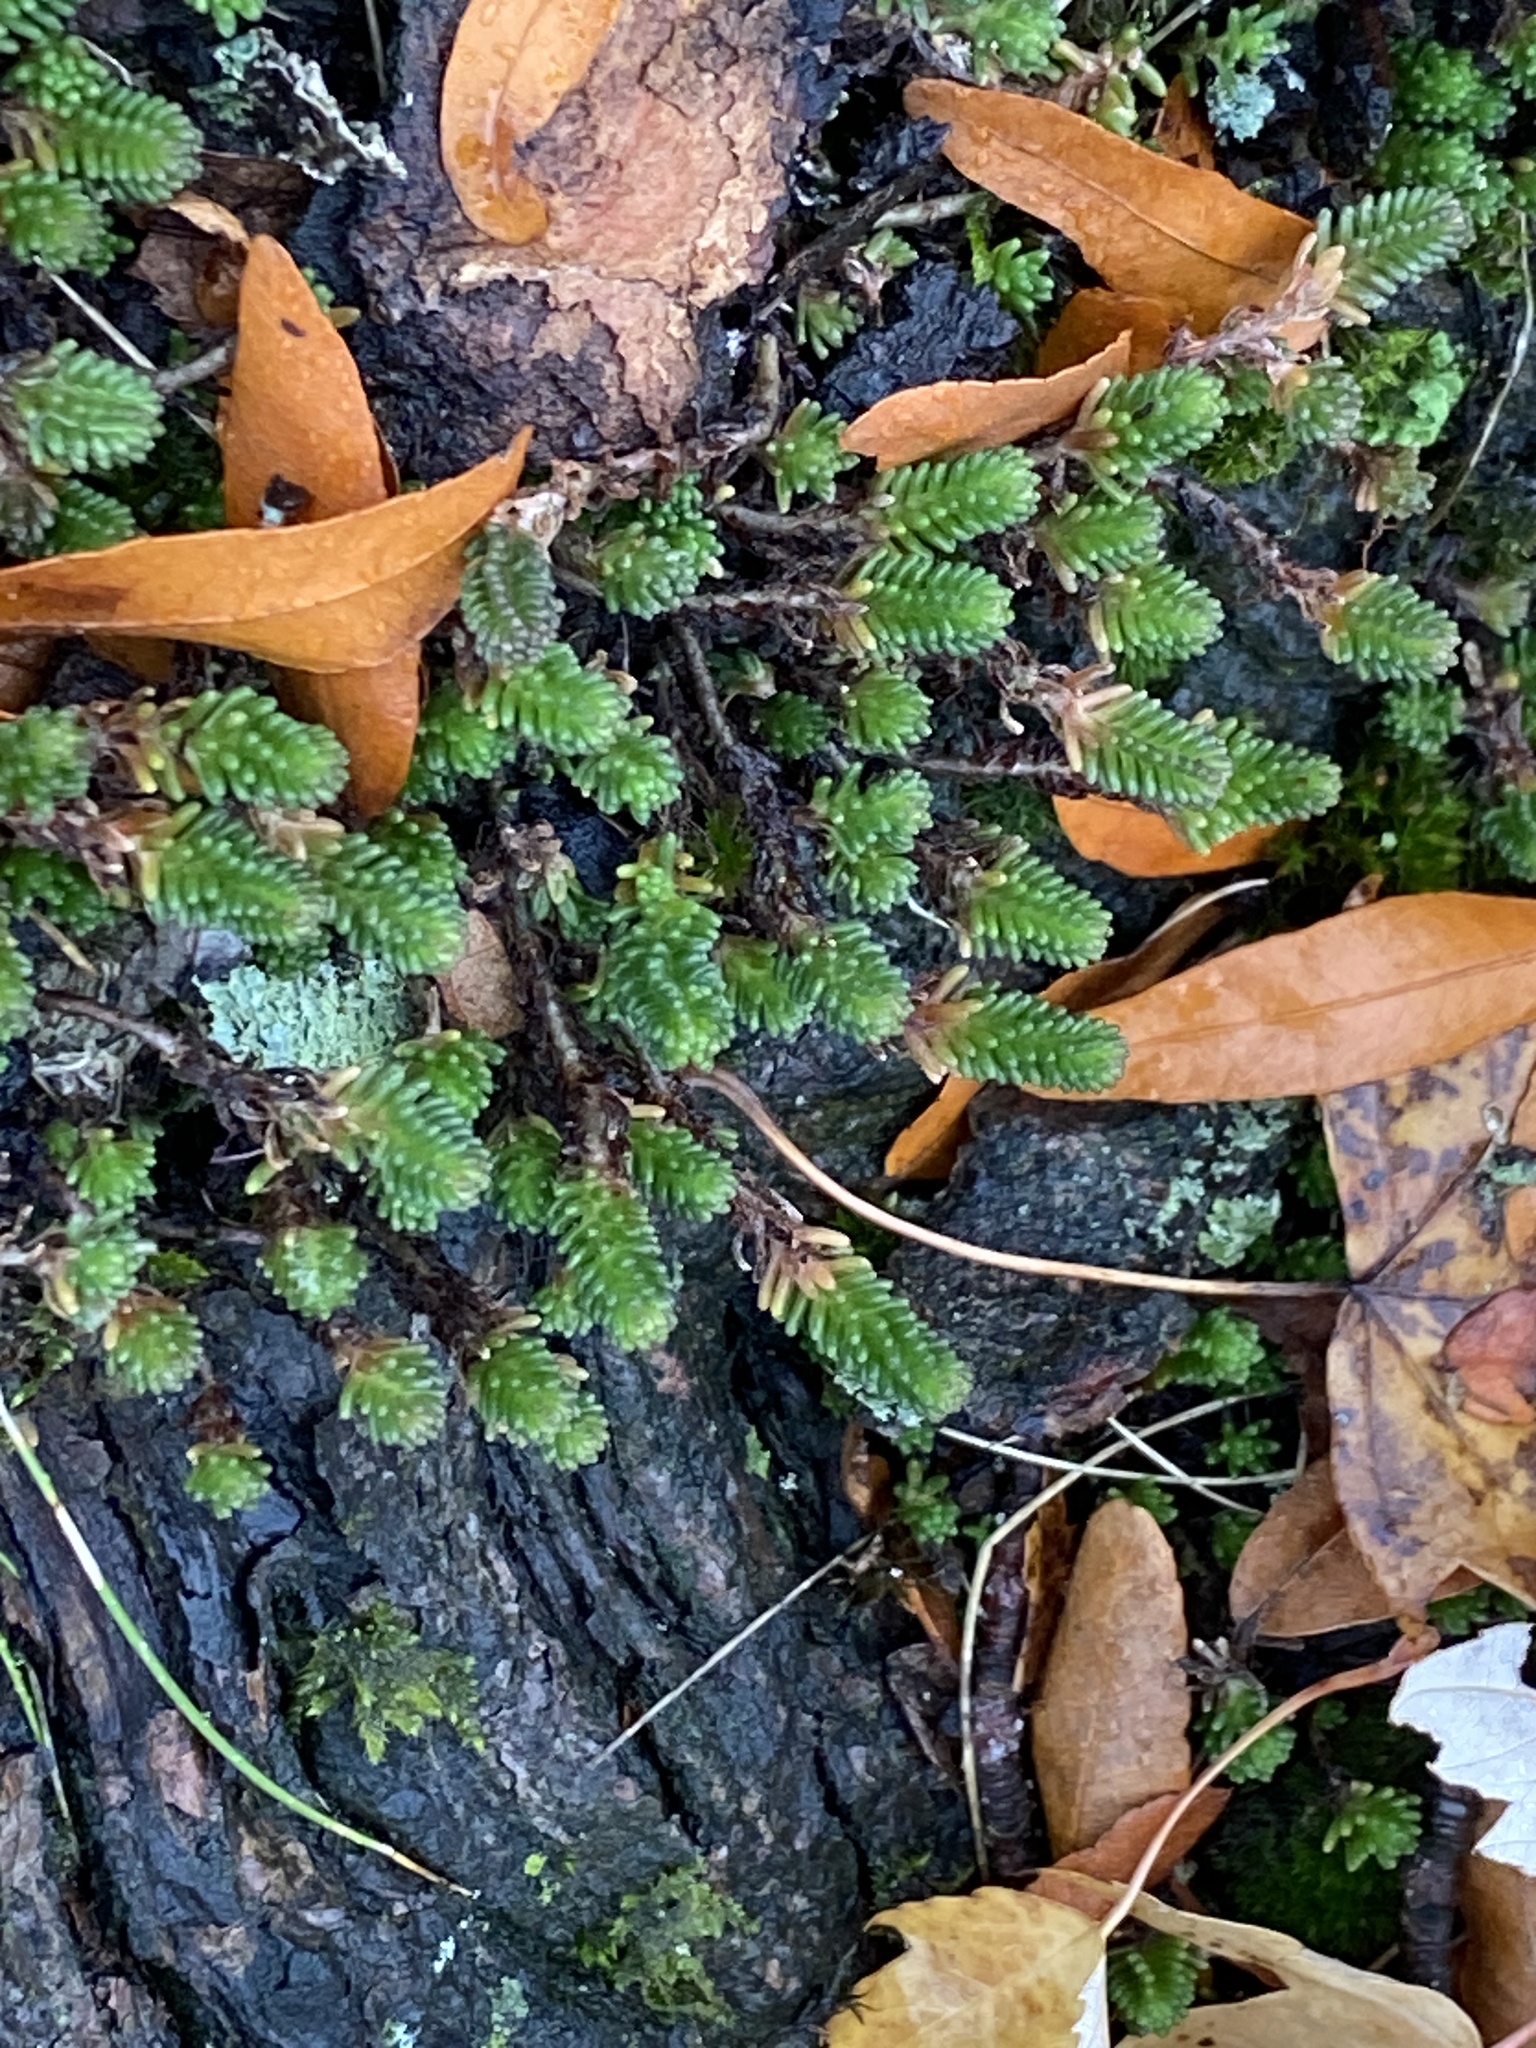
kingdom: Plantae
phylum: Tracheophyta
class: Magnoliopsida
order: Saxifragales
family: Crassulaceae
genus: Sedum
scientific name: Sedum sexangulare
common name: Tasteless stonecrop
